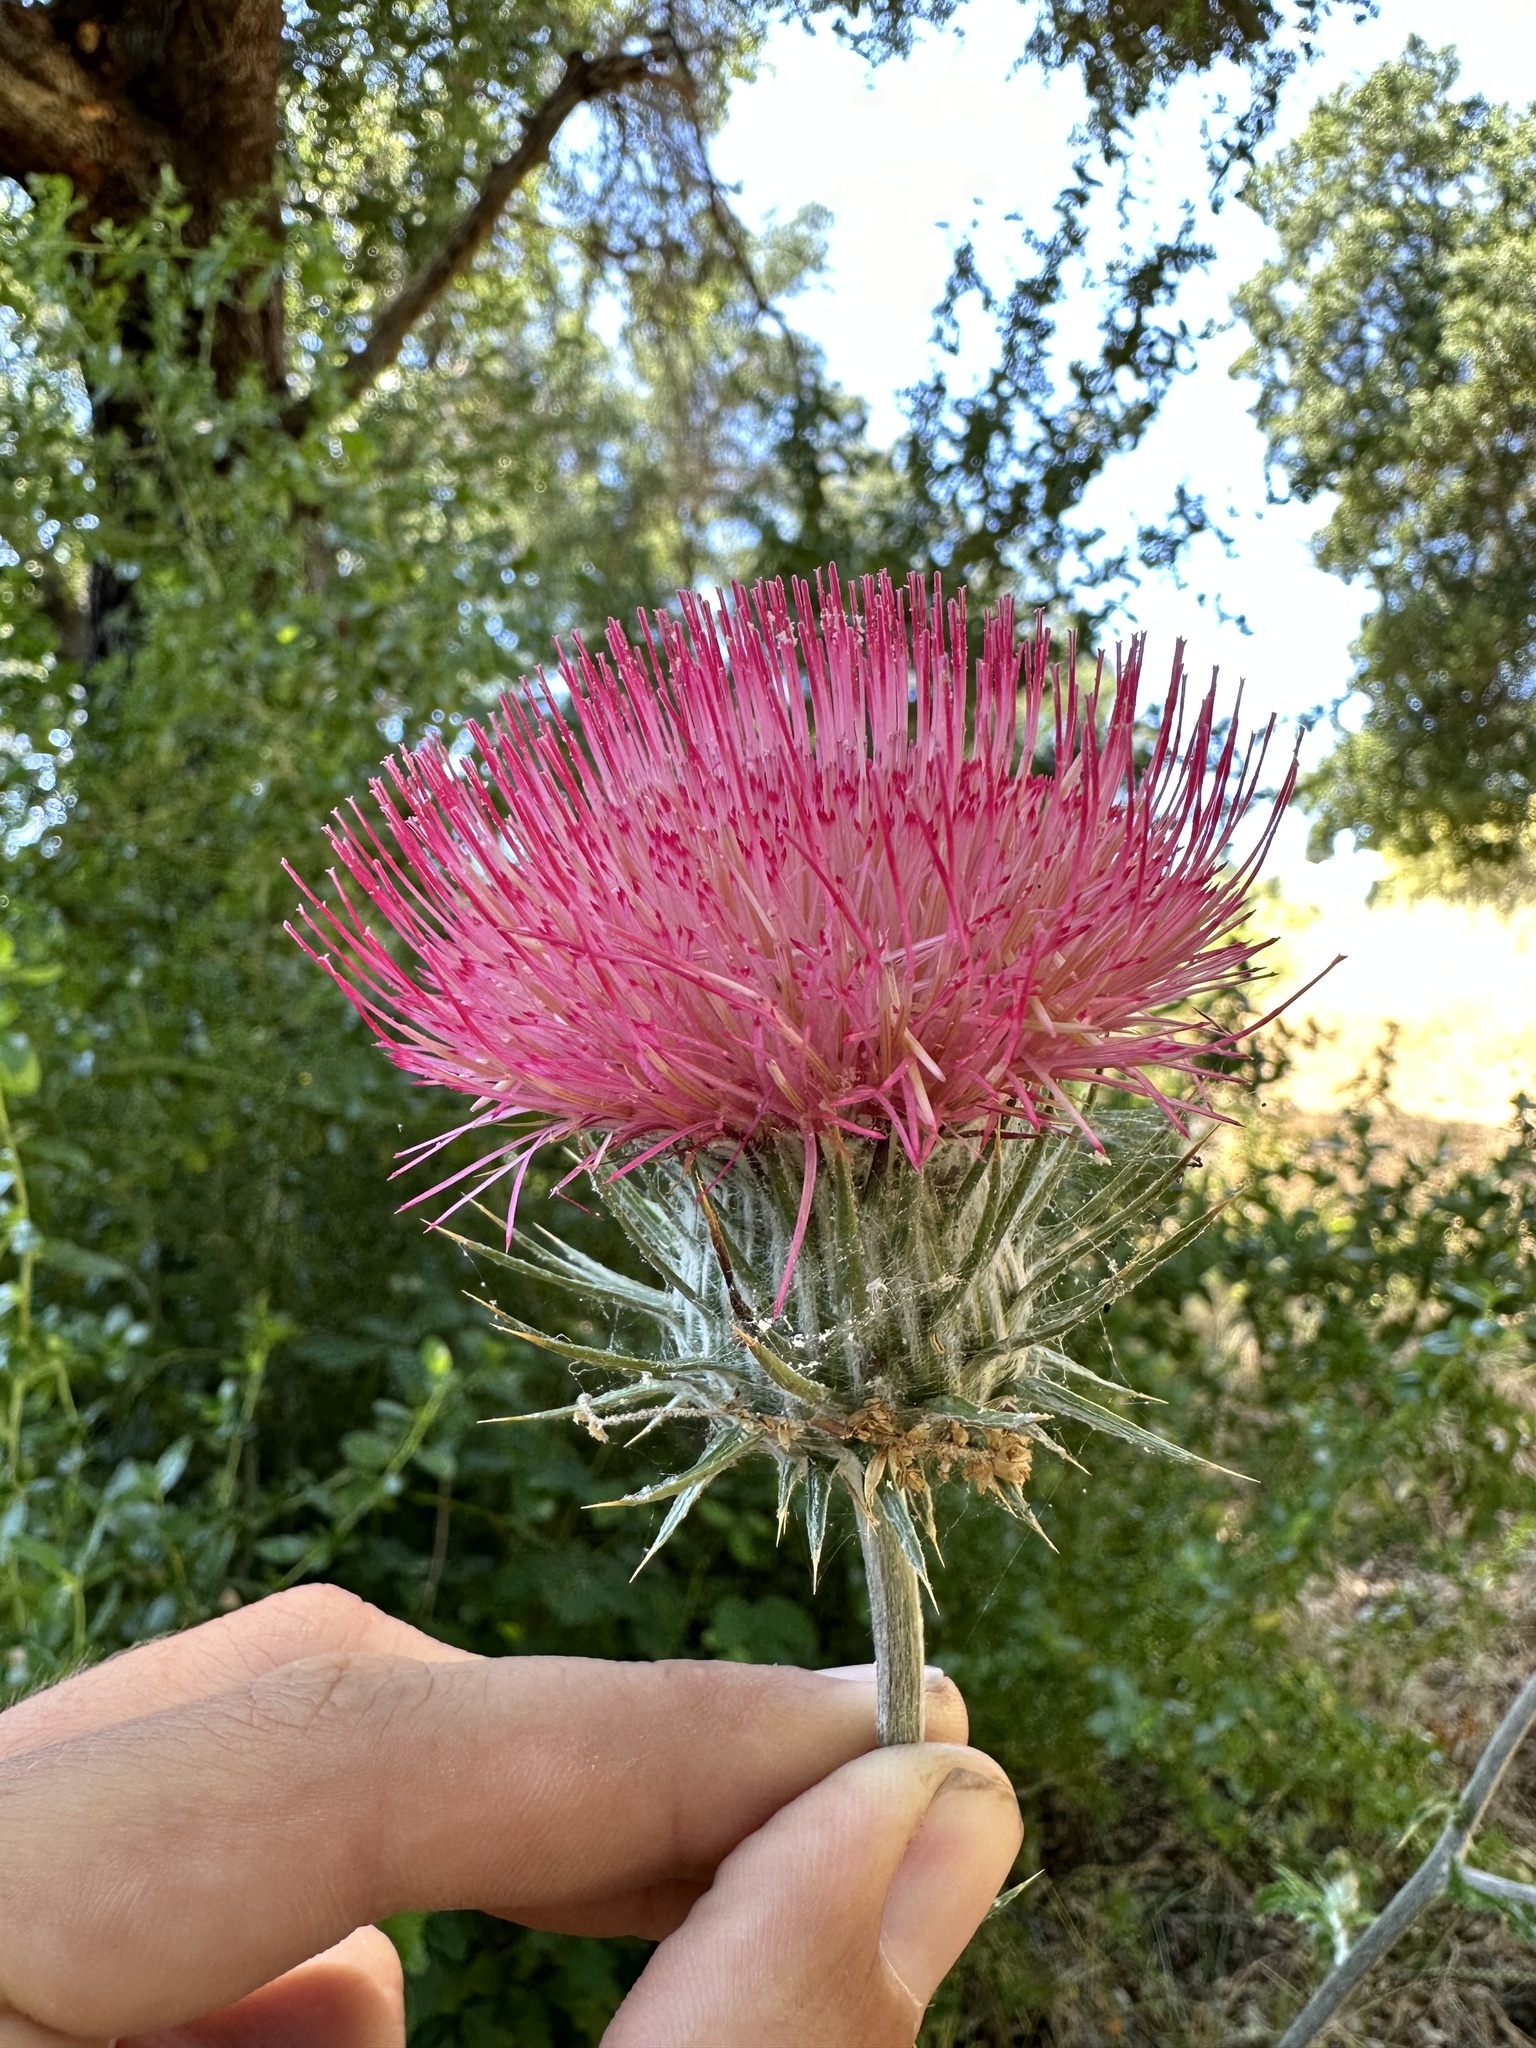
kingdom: Plantae
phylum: Tracheophyta
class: Magnoliopsida
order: Asterales
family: Asteraceae
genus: Cirsium
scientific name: Cirsium occidentale
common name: Western thistle
